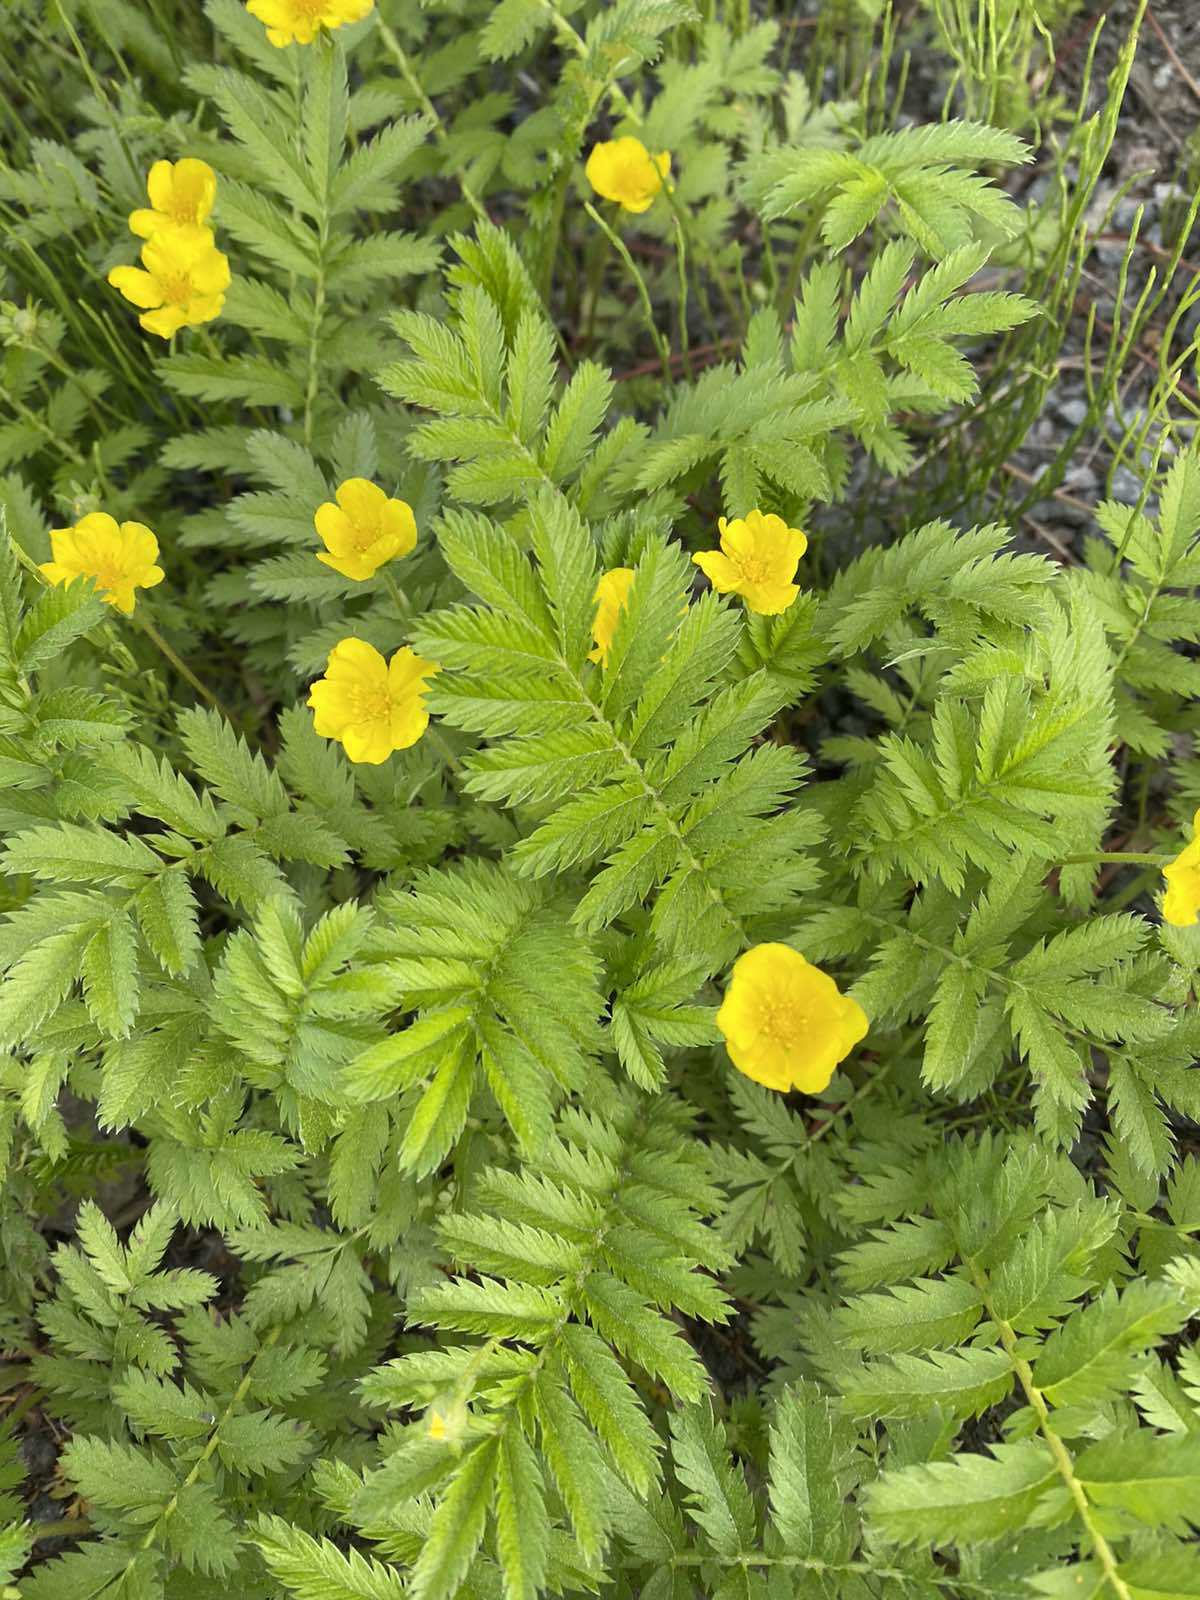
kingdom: Plantae
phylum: Tracheophyta
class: Magnoliopsida
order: Rosales
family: Rosaceae
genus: Argentina
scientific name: Argentina anserina
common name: Common silverweed
